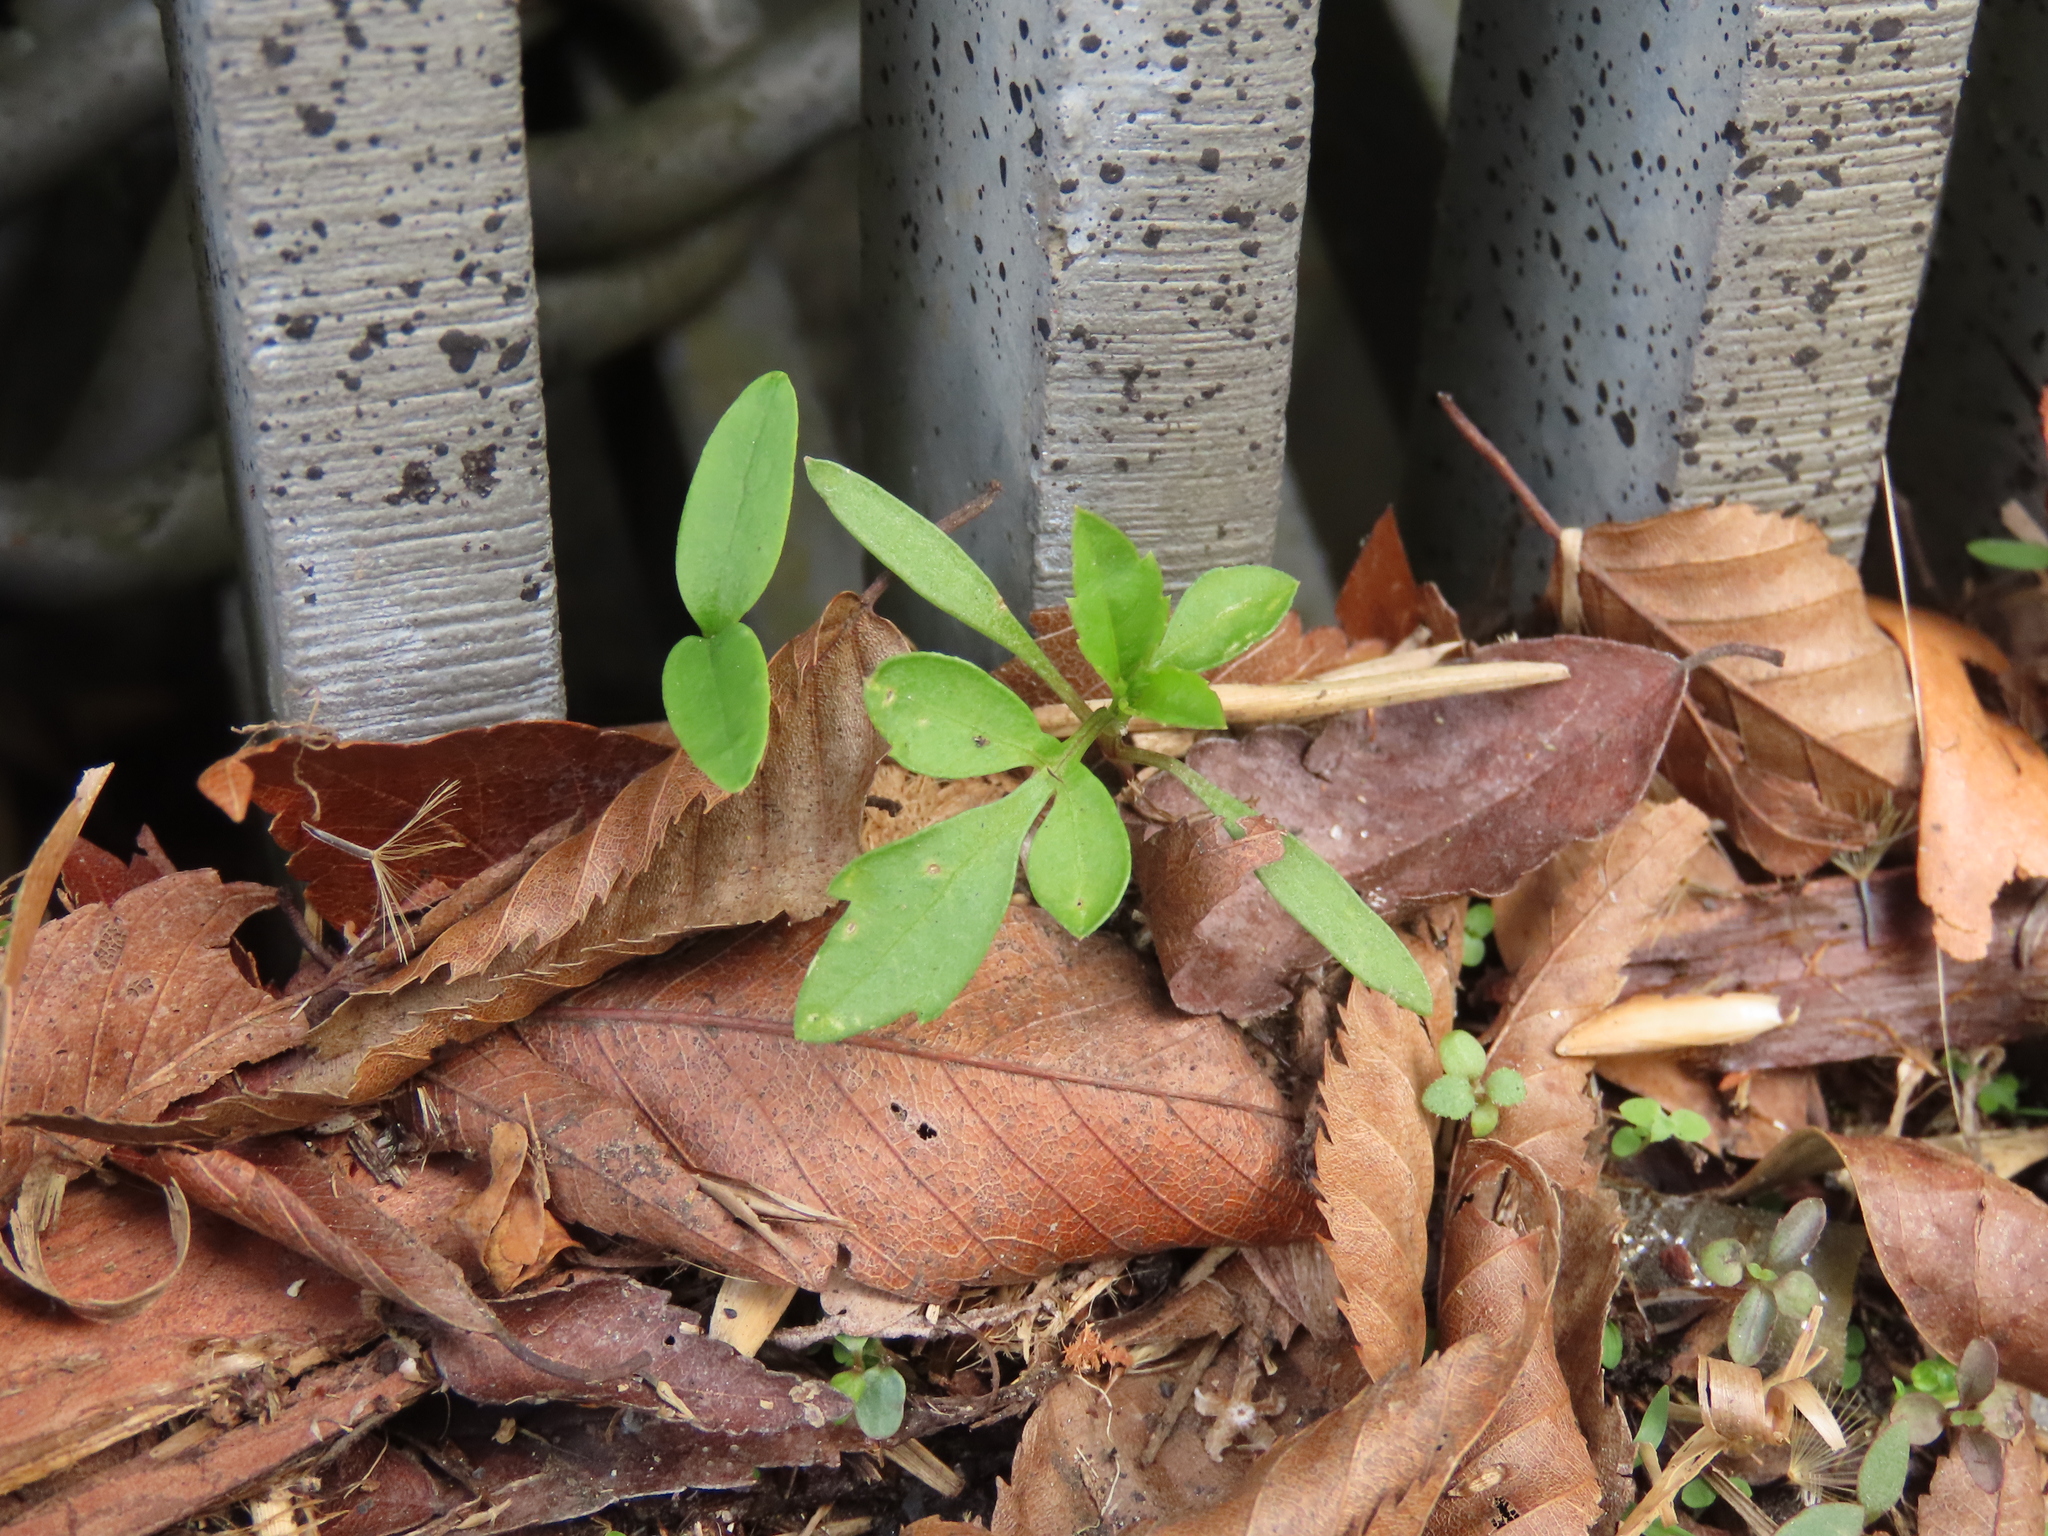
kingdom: Plantae
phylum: Tracheophyta
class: Magnoliopsida
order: Asterales
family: Asteraceae
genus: Bidens
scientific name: Bidens alba
